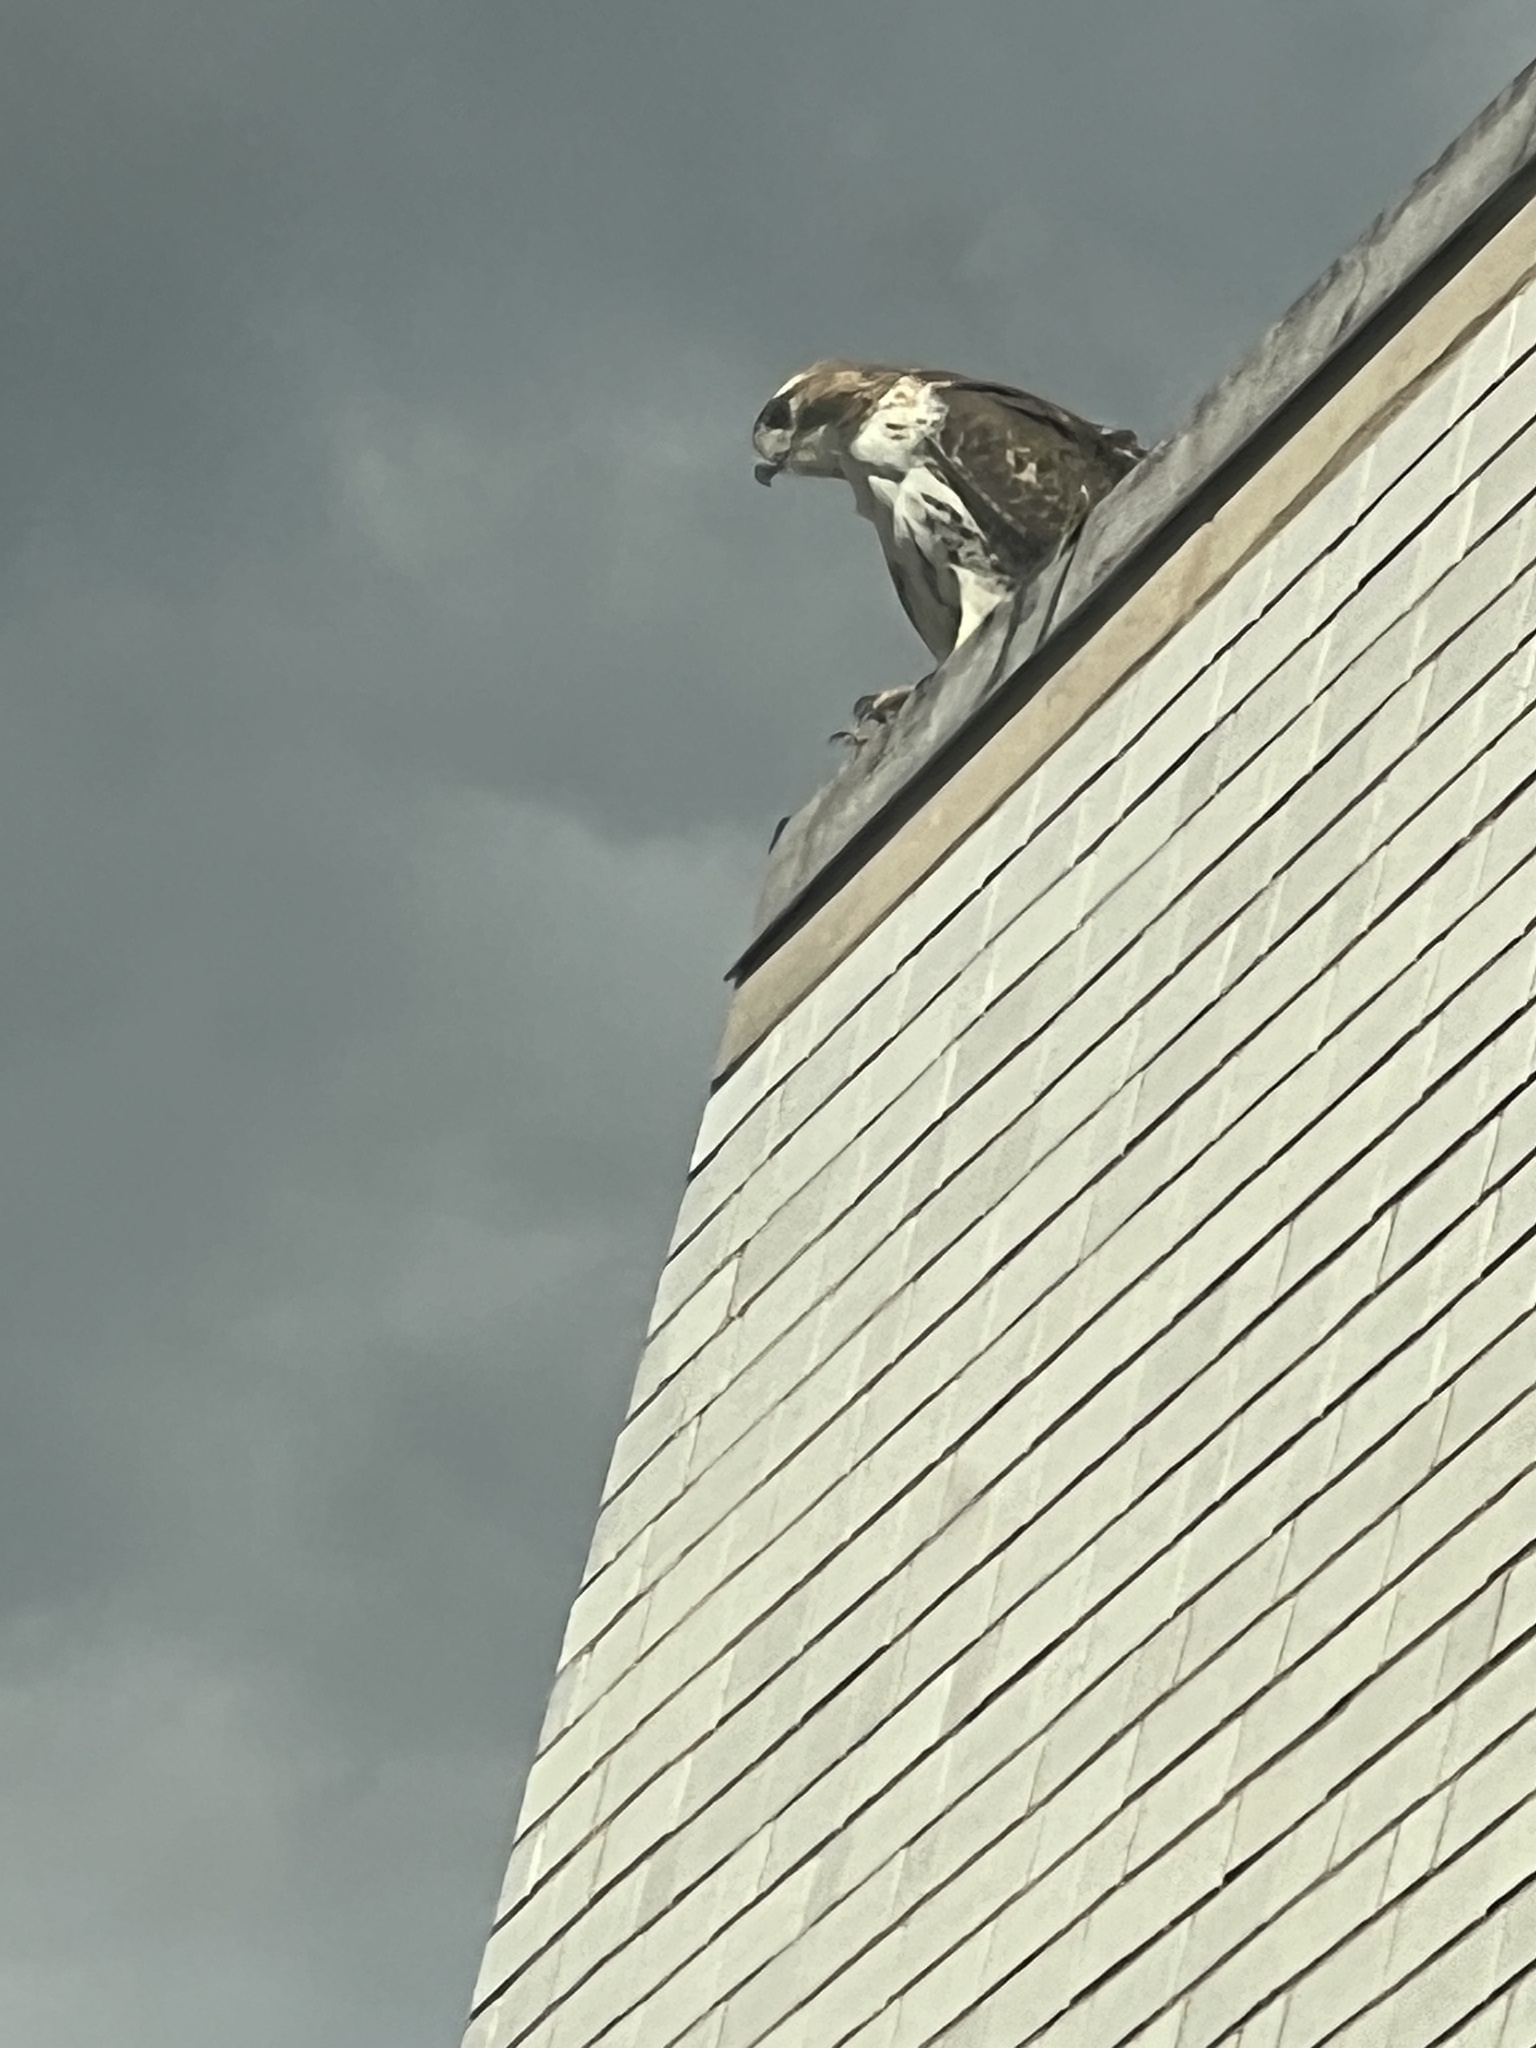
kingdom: Animalia
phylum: Chordata
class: Aves
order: Accipitriformes
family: Accipitridae
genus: Buteo
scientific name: Buteo jamaicensis
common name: Red-tailed hawk
